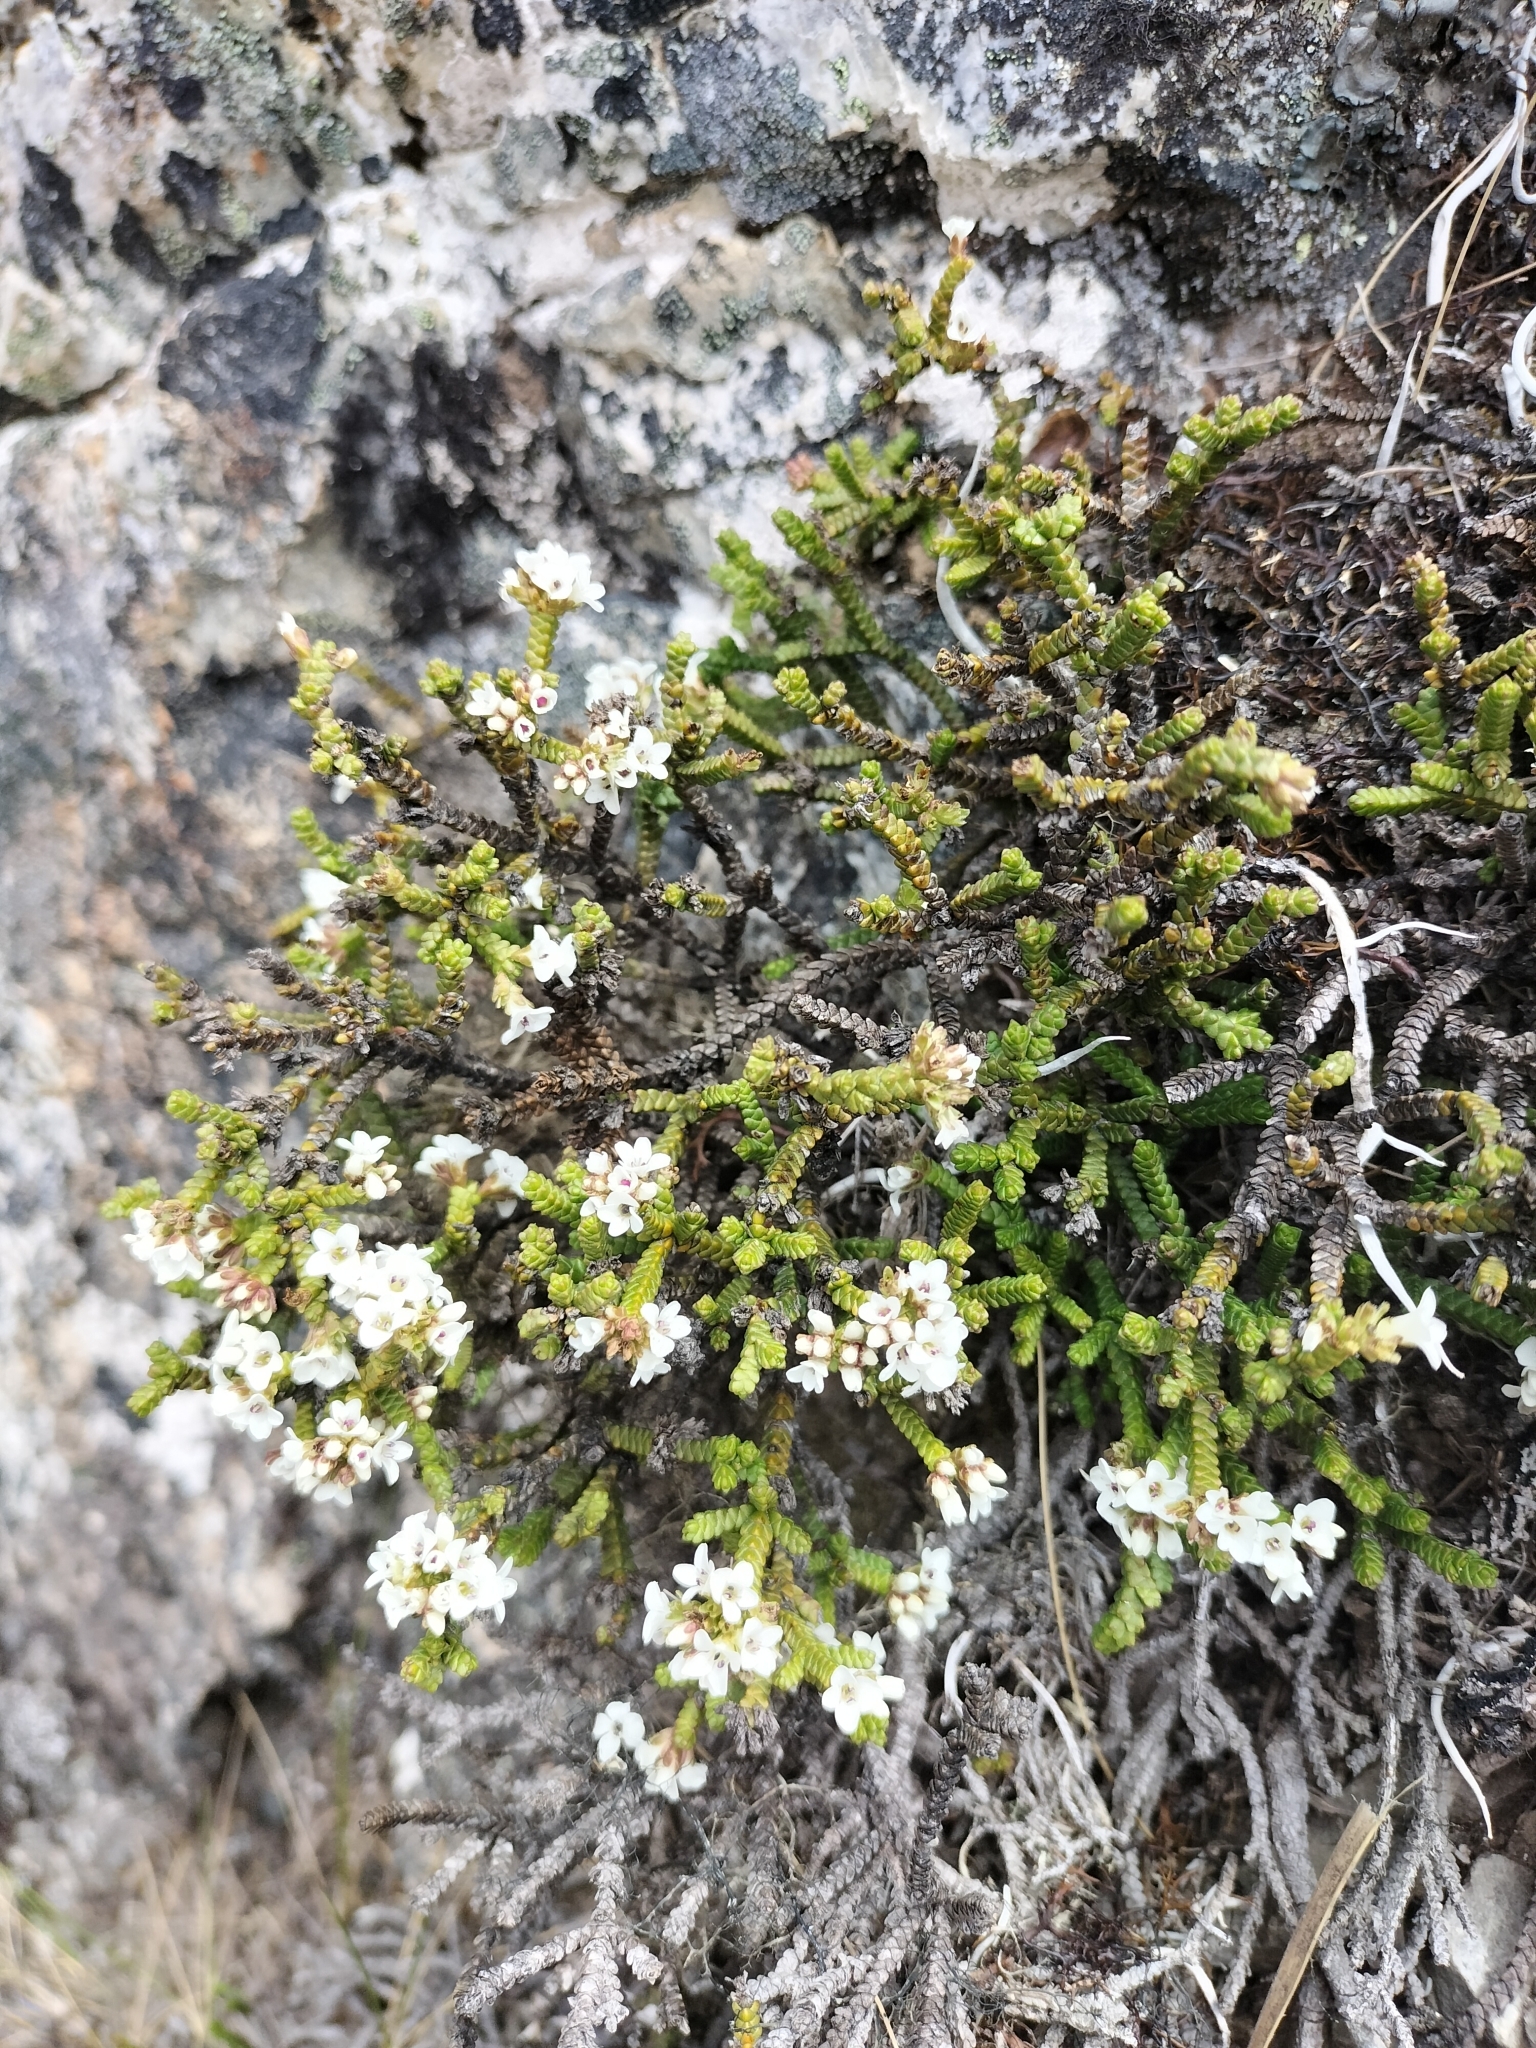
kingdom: Plantae
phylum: Tracheophyta
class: Magnoliopsida
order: Lamiales
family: Plantaginaceae
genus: Veronica
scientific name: Veronica tumida
